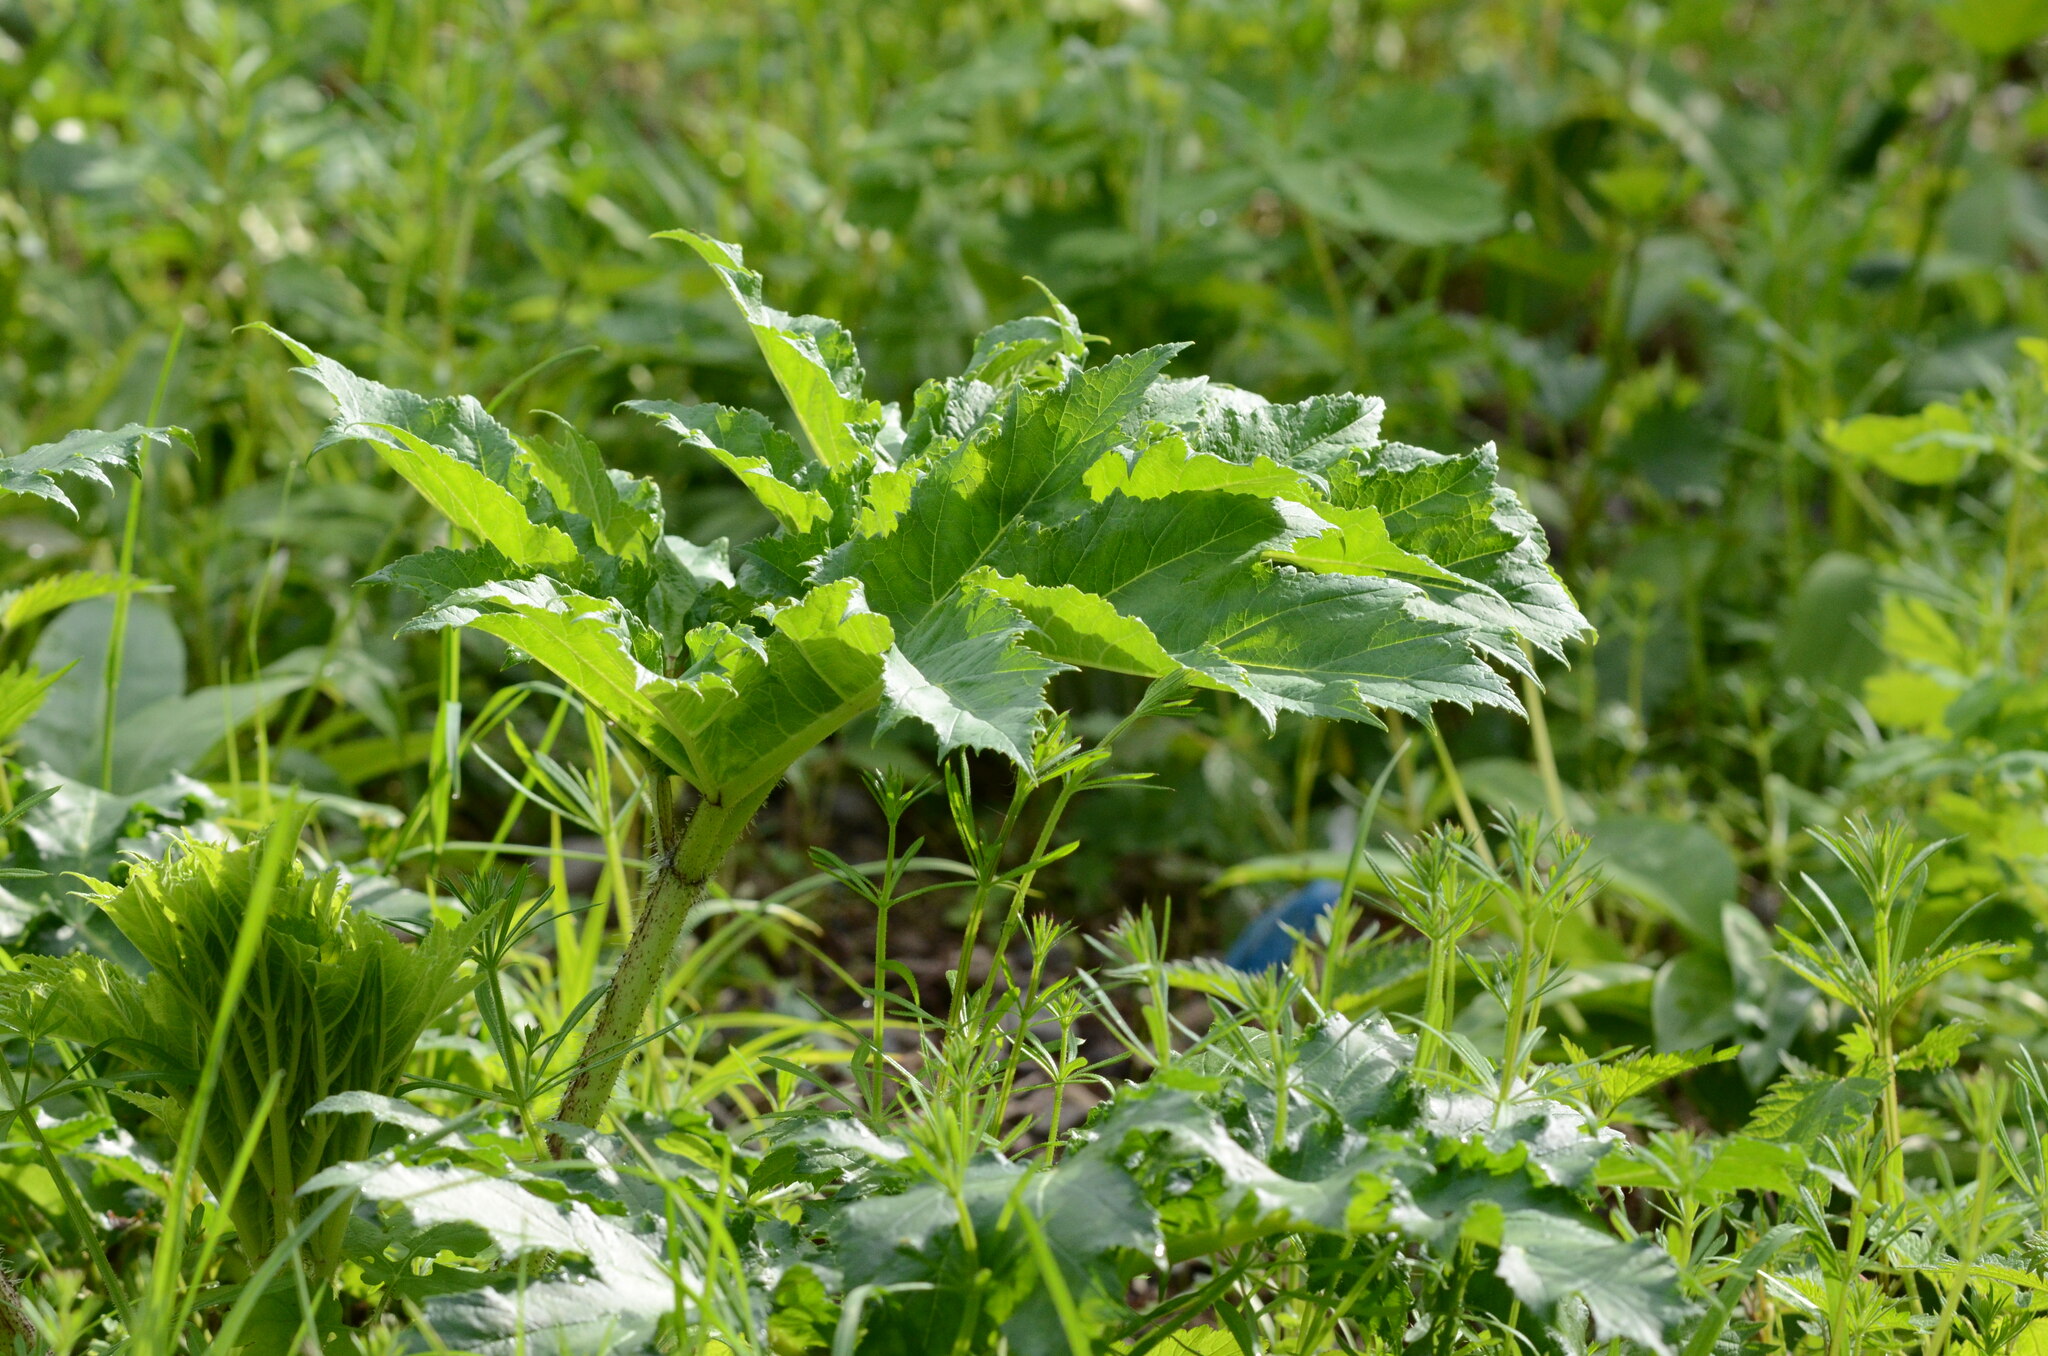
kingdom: Plantae
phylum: Tracheophyta
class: Magnoliopsida
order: Apiales
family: Apiaceae
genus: Heracleum
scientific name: Heracleum mantegazzianum
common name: Giant hogweed
